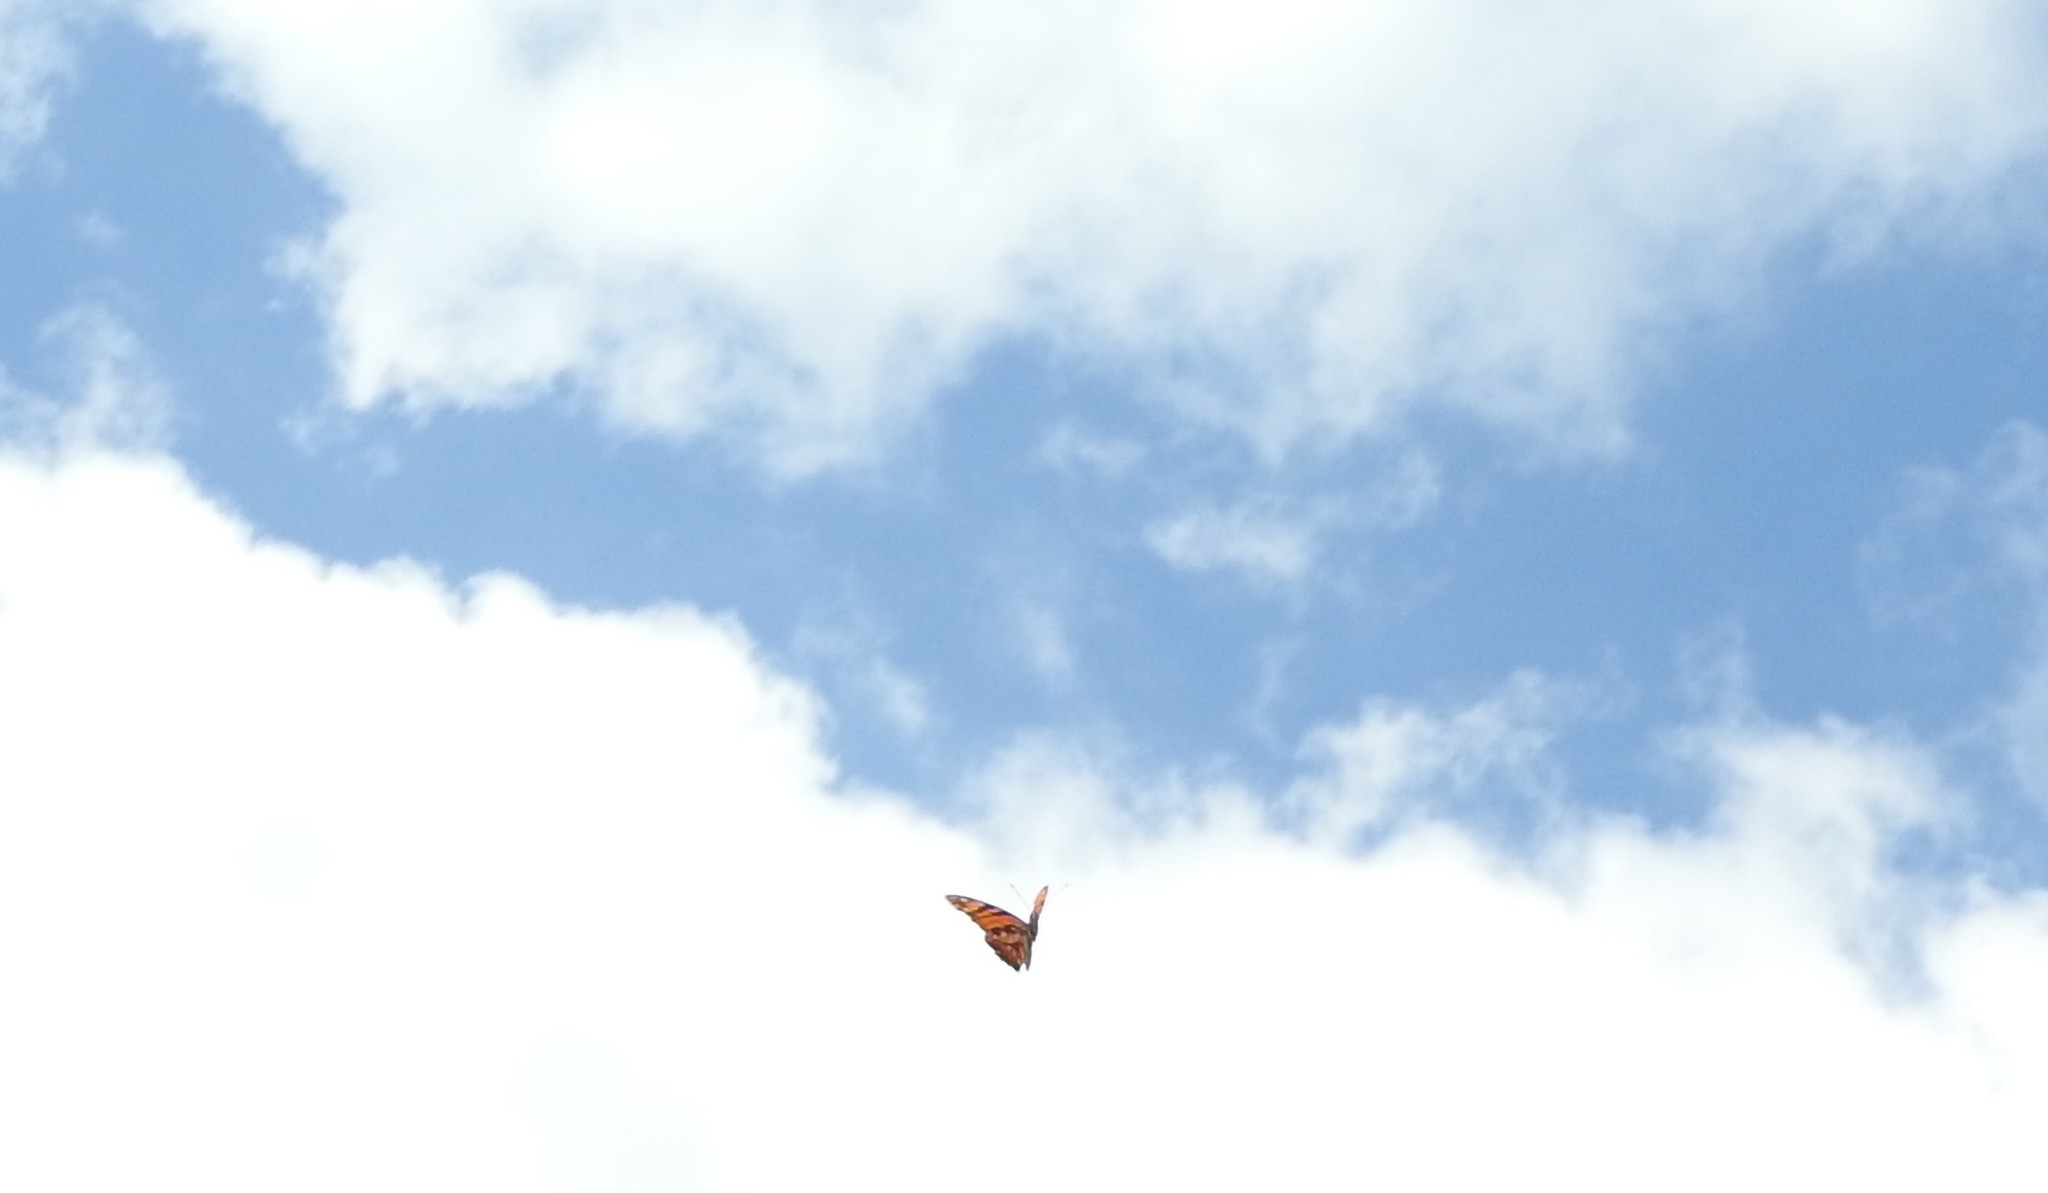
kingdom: Animalia
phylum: Arthropoda
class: Insecta
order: Lepidoptera
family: Nymphalidae
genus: Dione
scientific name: Dione juno
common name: Juno silverspot
